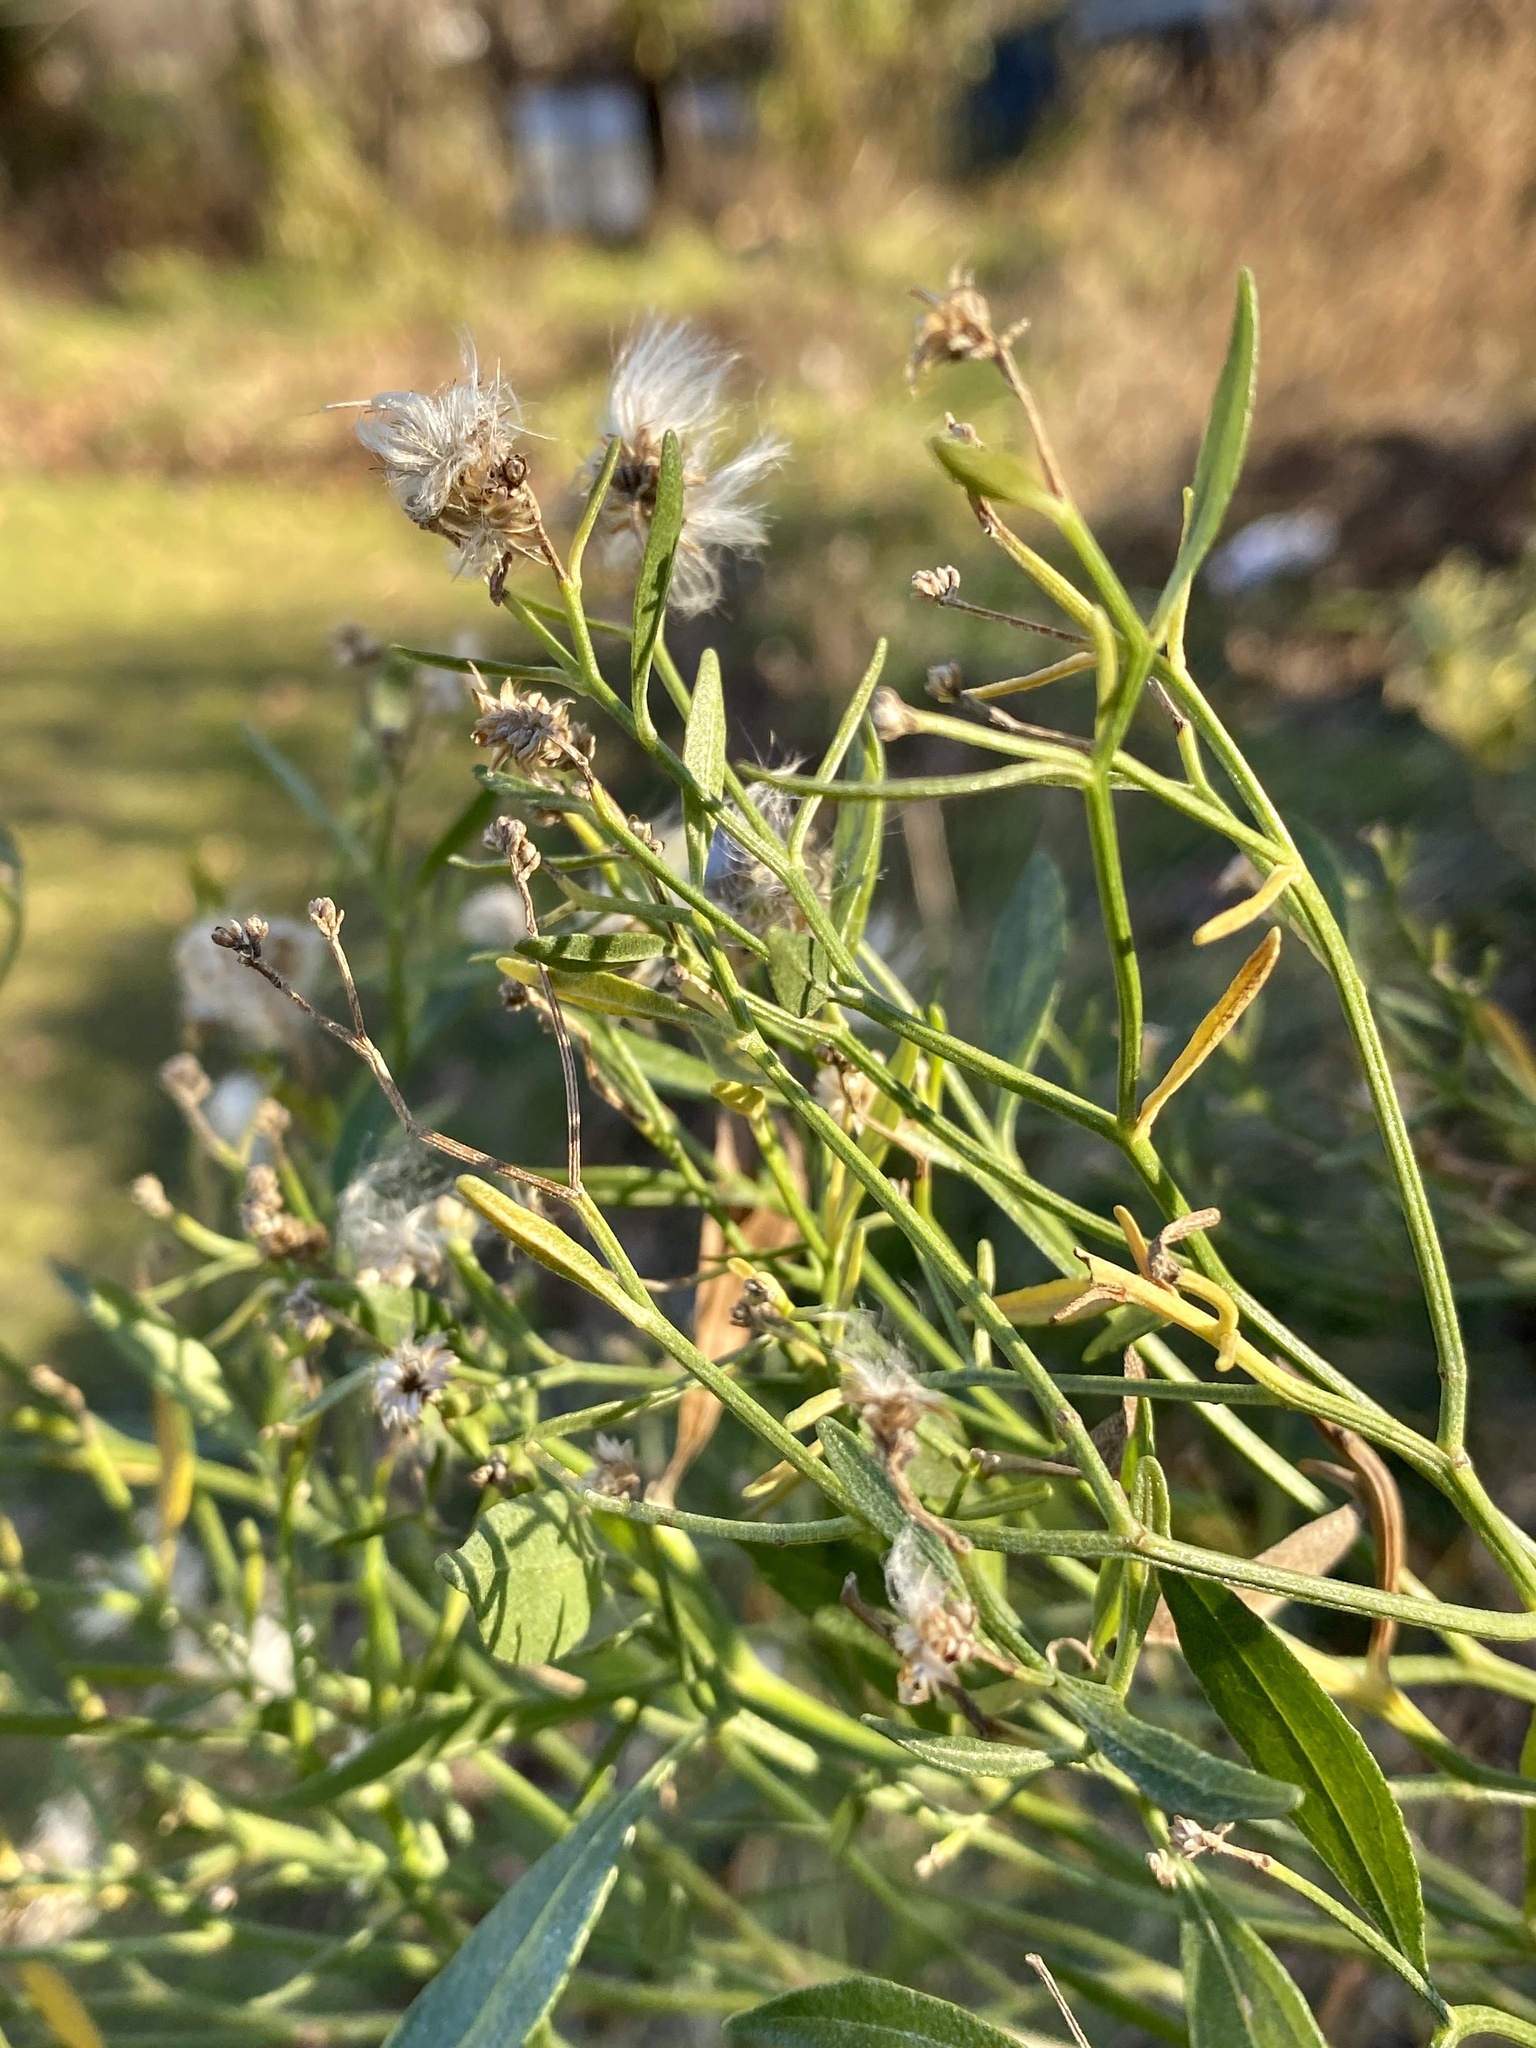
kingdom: Plantae
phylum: Tracheophyta
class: Magnoliopsida
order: Asterales
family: Asteraceae
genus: Baccharis
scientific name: Baccharis halimifolia
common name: Eastern baccharis
